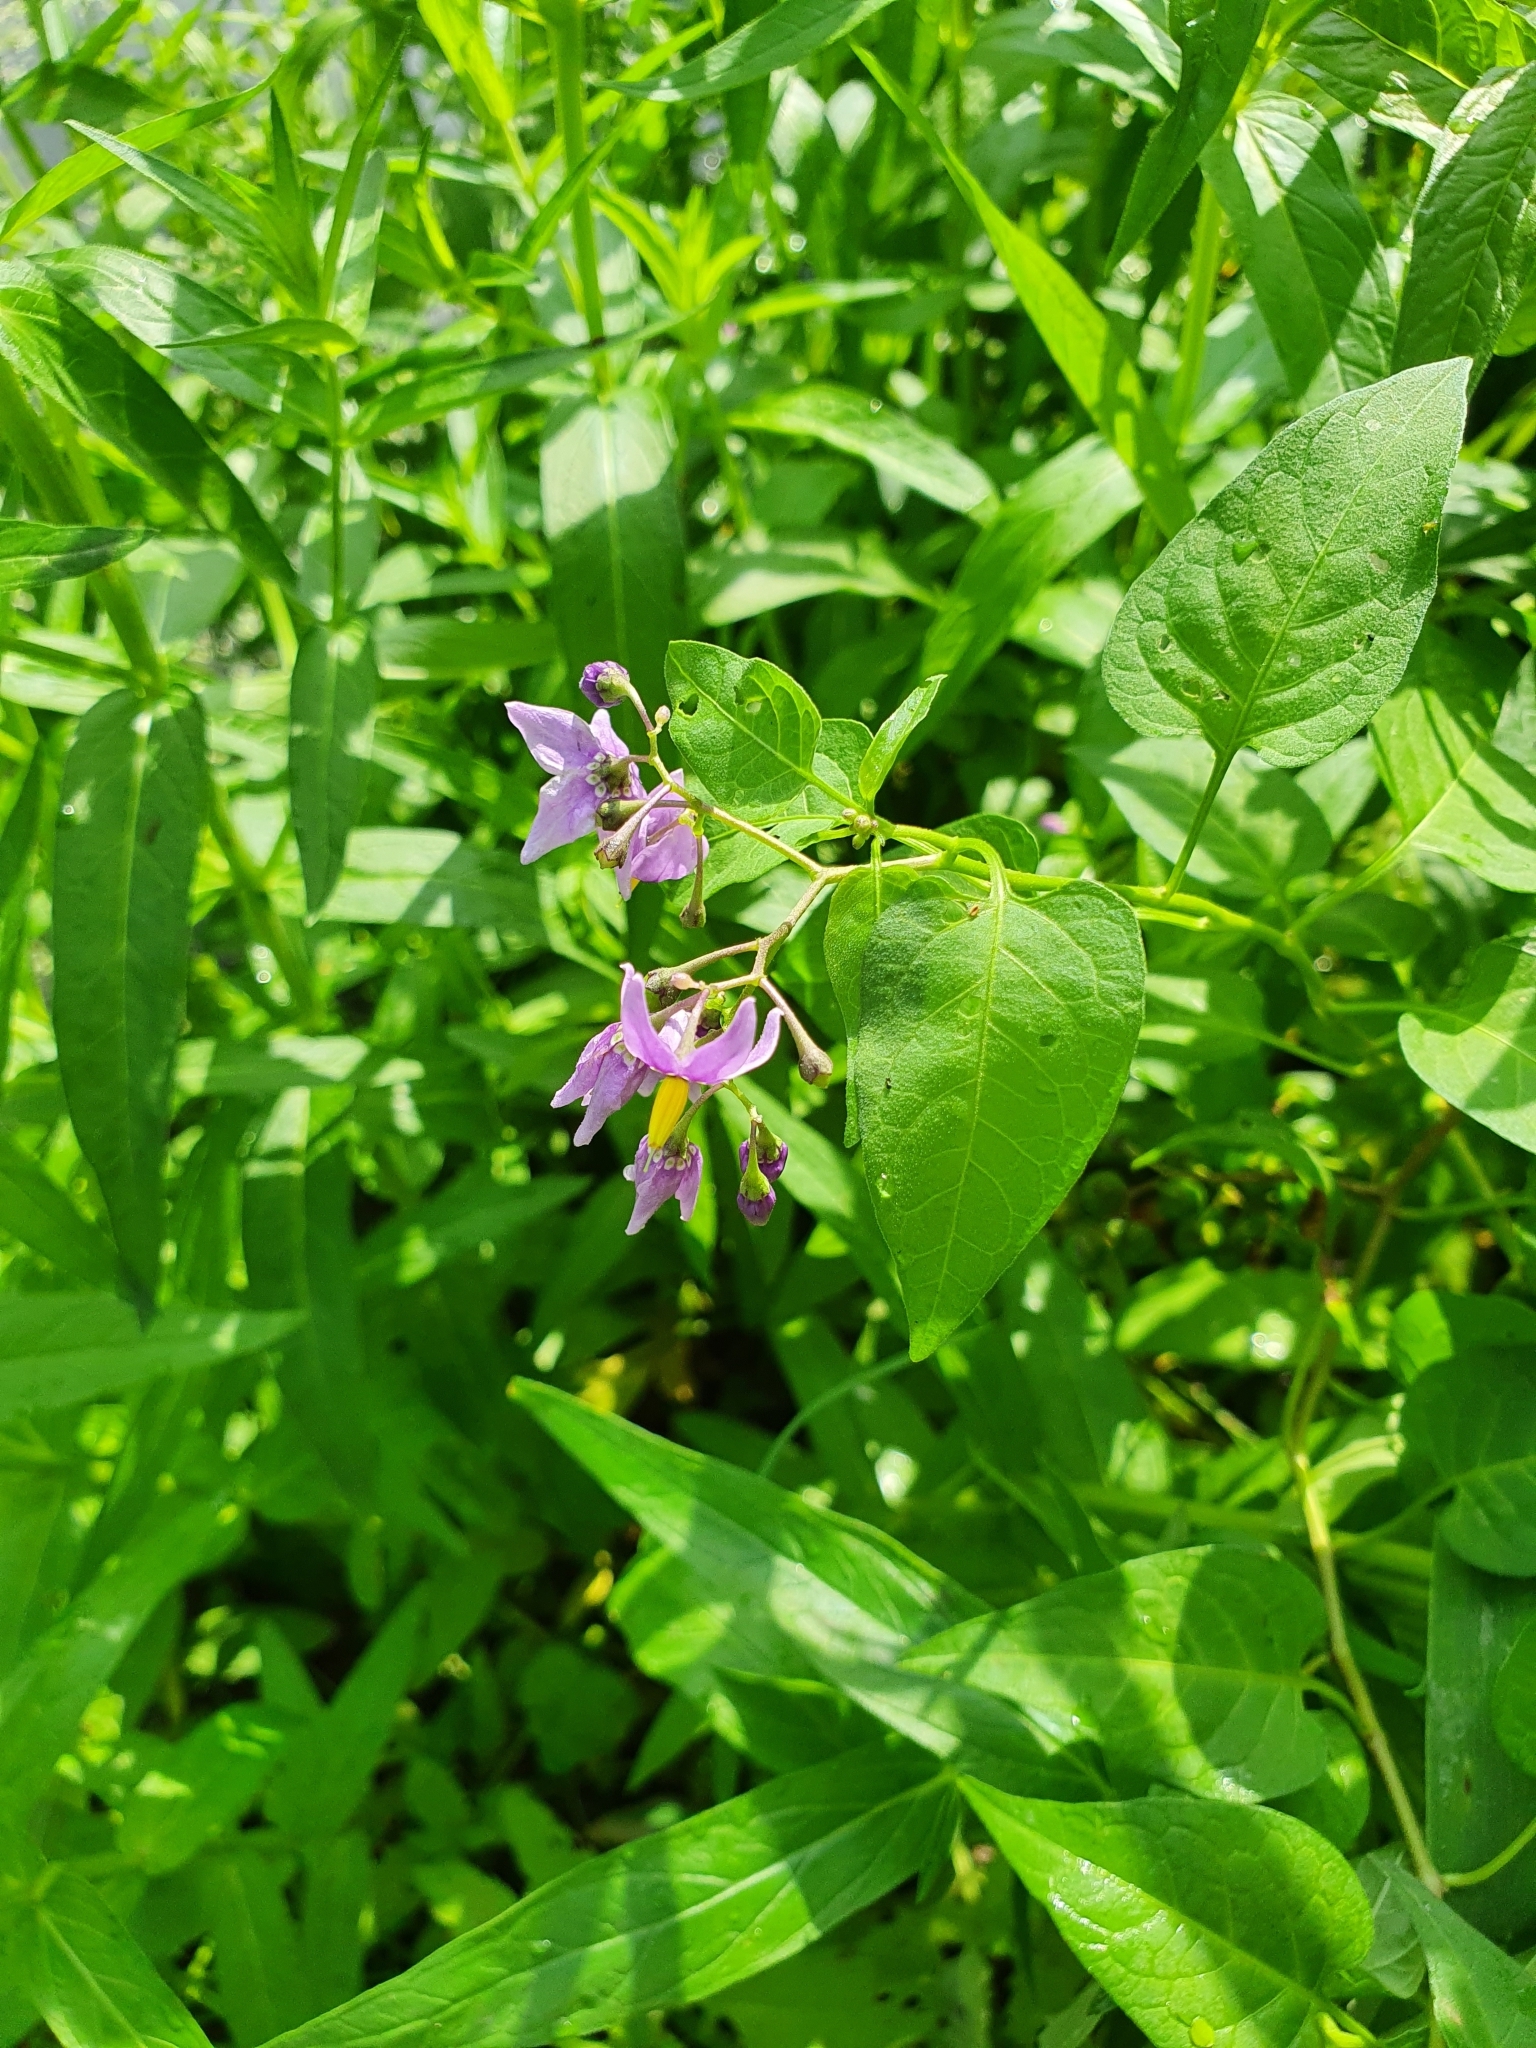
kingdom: Plantae
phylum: Tracheophyta
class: Magnoliopsida
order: Solanales
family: Solanaceae
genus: Solanum
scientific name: Solanum dulcamara
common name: Climbing nightshade
